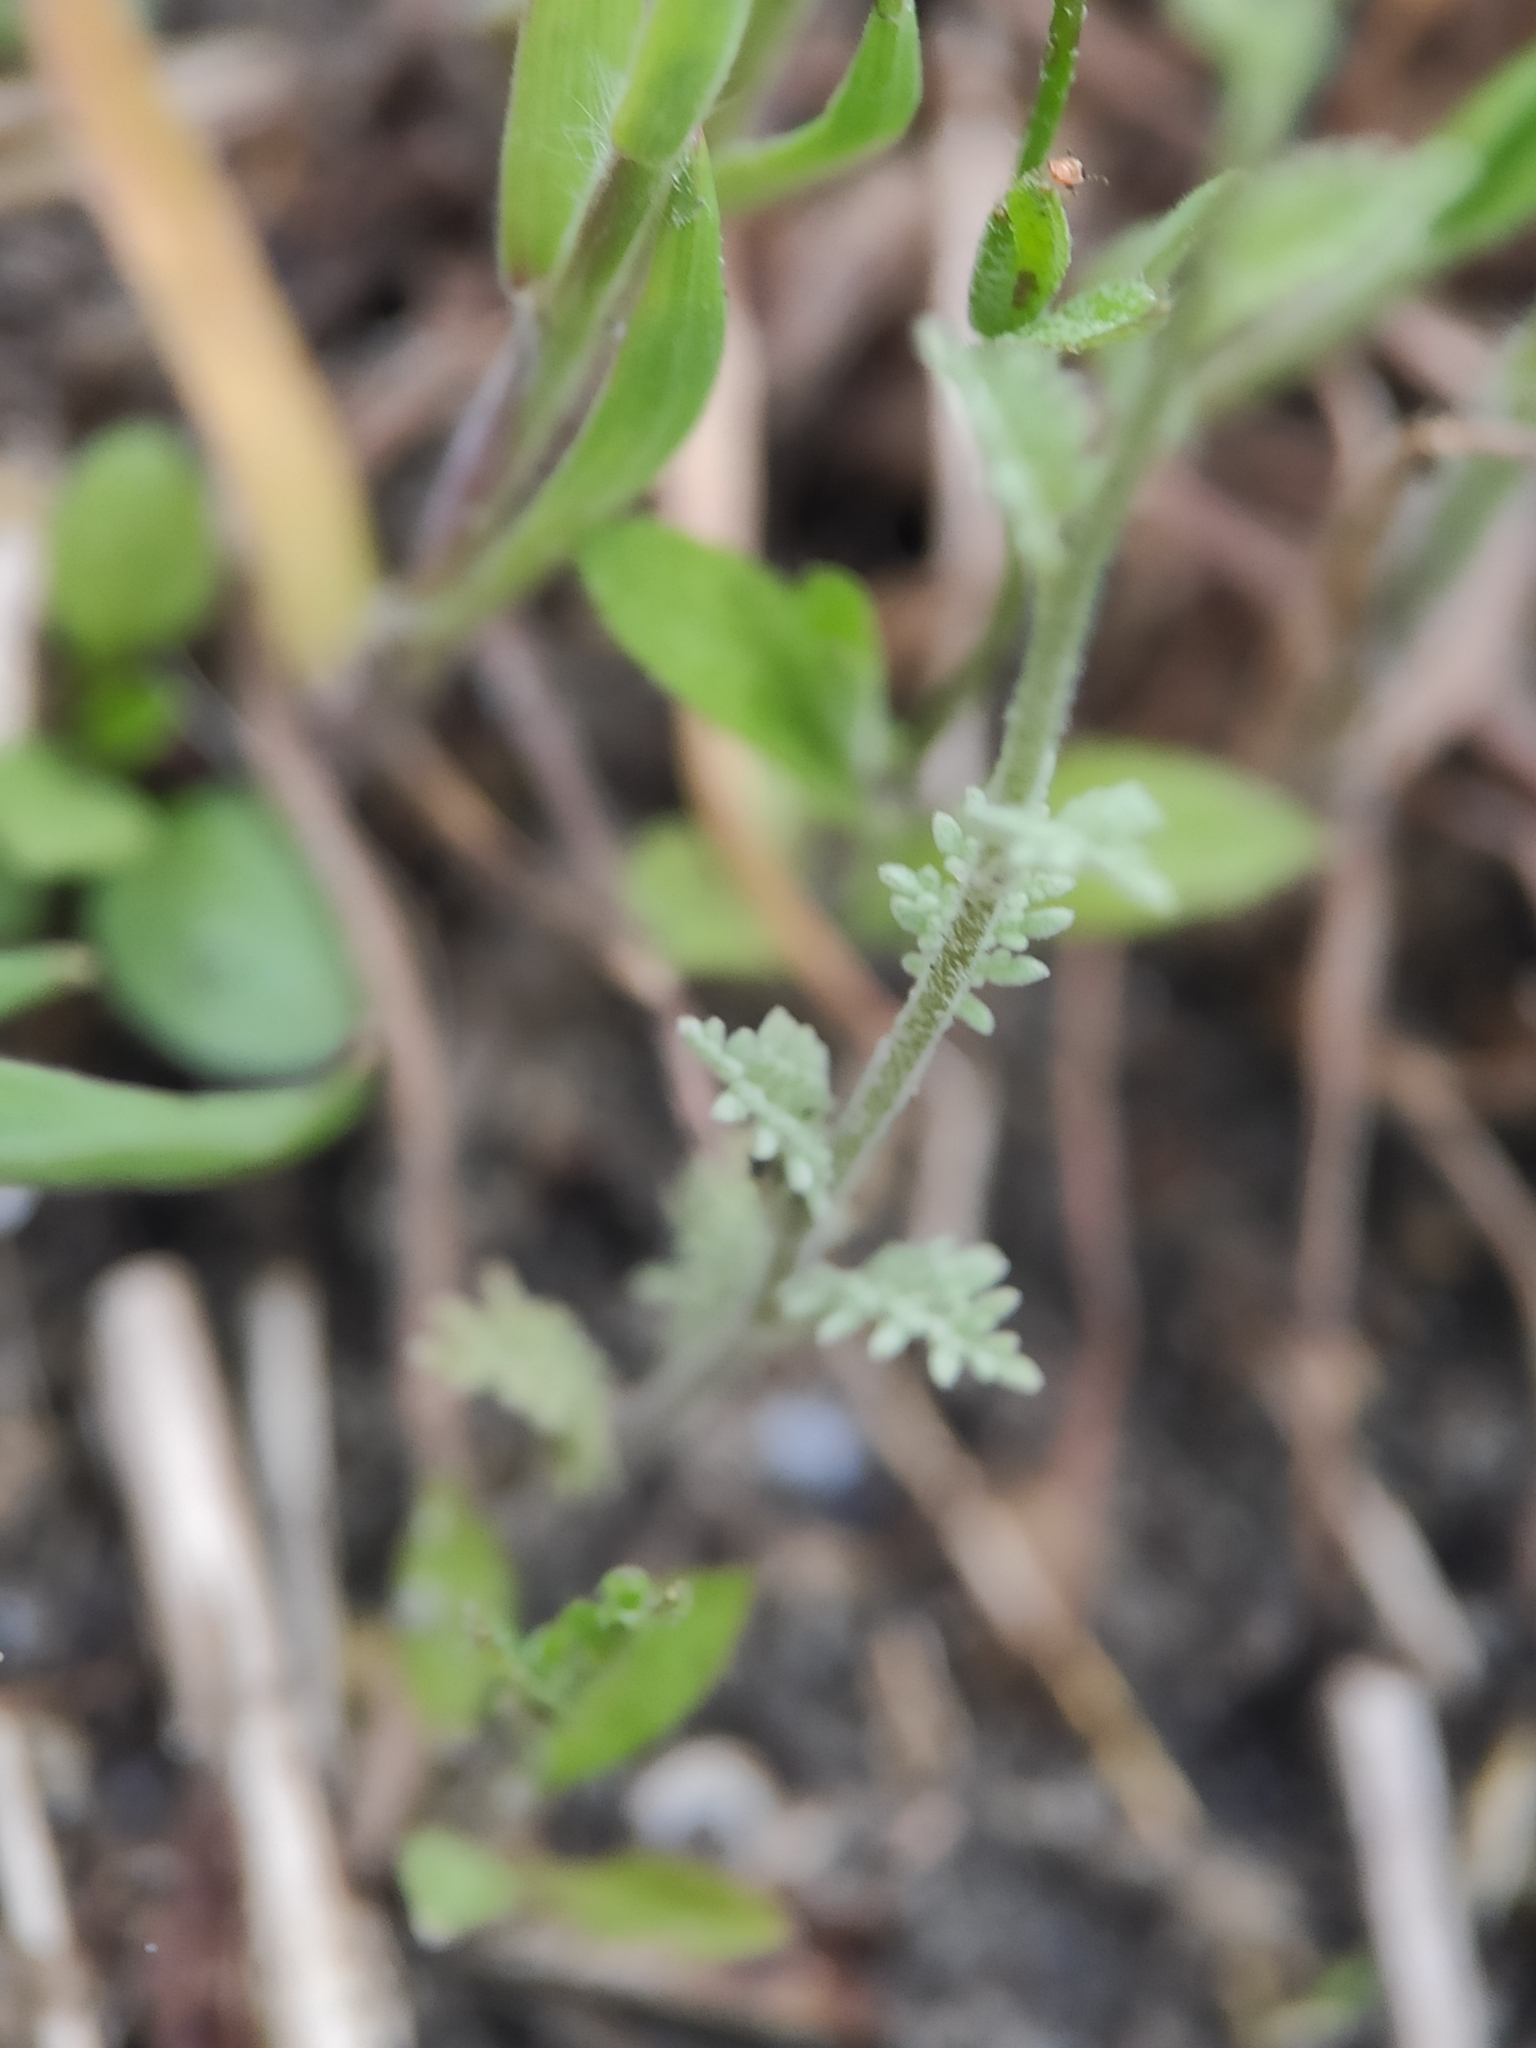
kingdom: Plantae
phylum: Tracheophyta
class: Magnoliopsida
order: Brassicales
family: Brassicaceae
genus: Descurainia
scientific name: Descurainia sophia
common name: Flixweed
